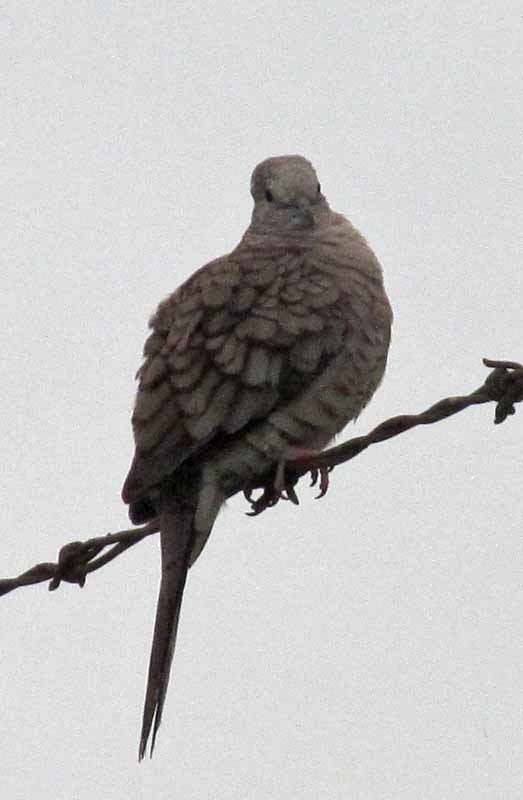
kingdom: Animalia
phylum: Chordata
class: Aves
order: Columbiformes
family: Columbidae
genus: Columbina
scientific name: Columbina inca
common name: Inca dove
